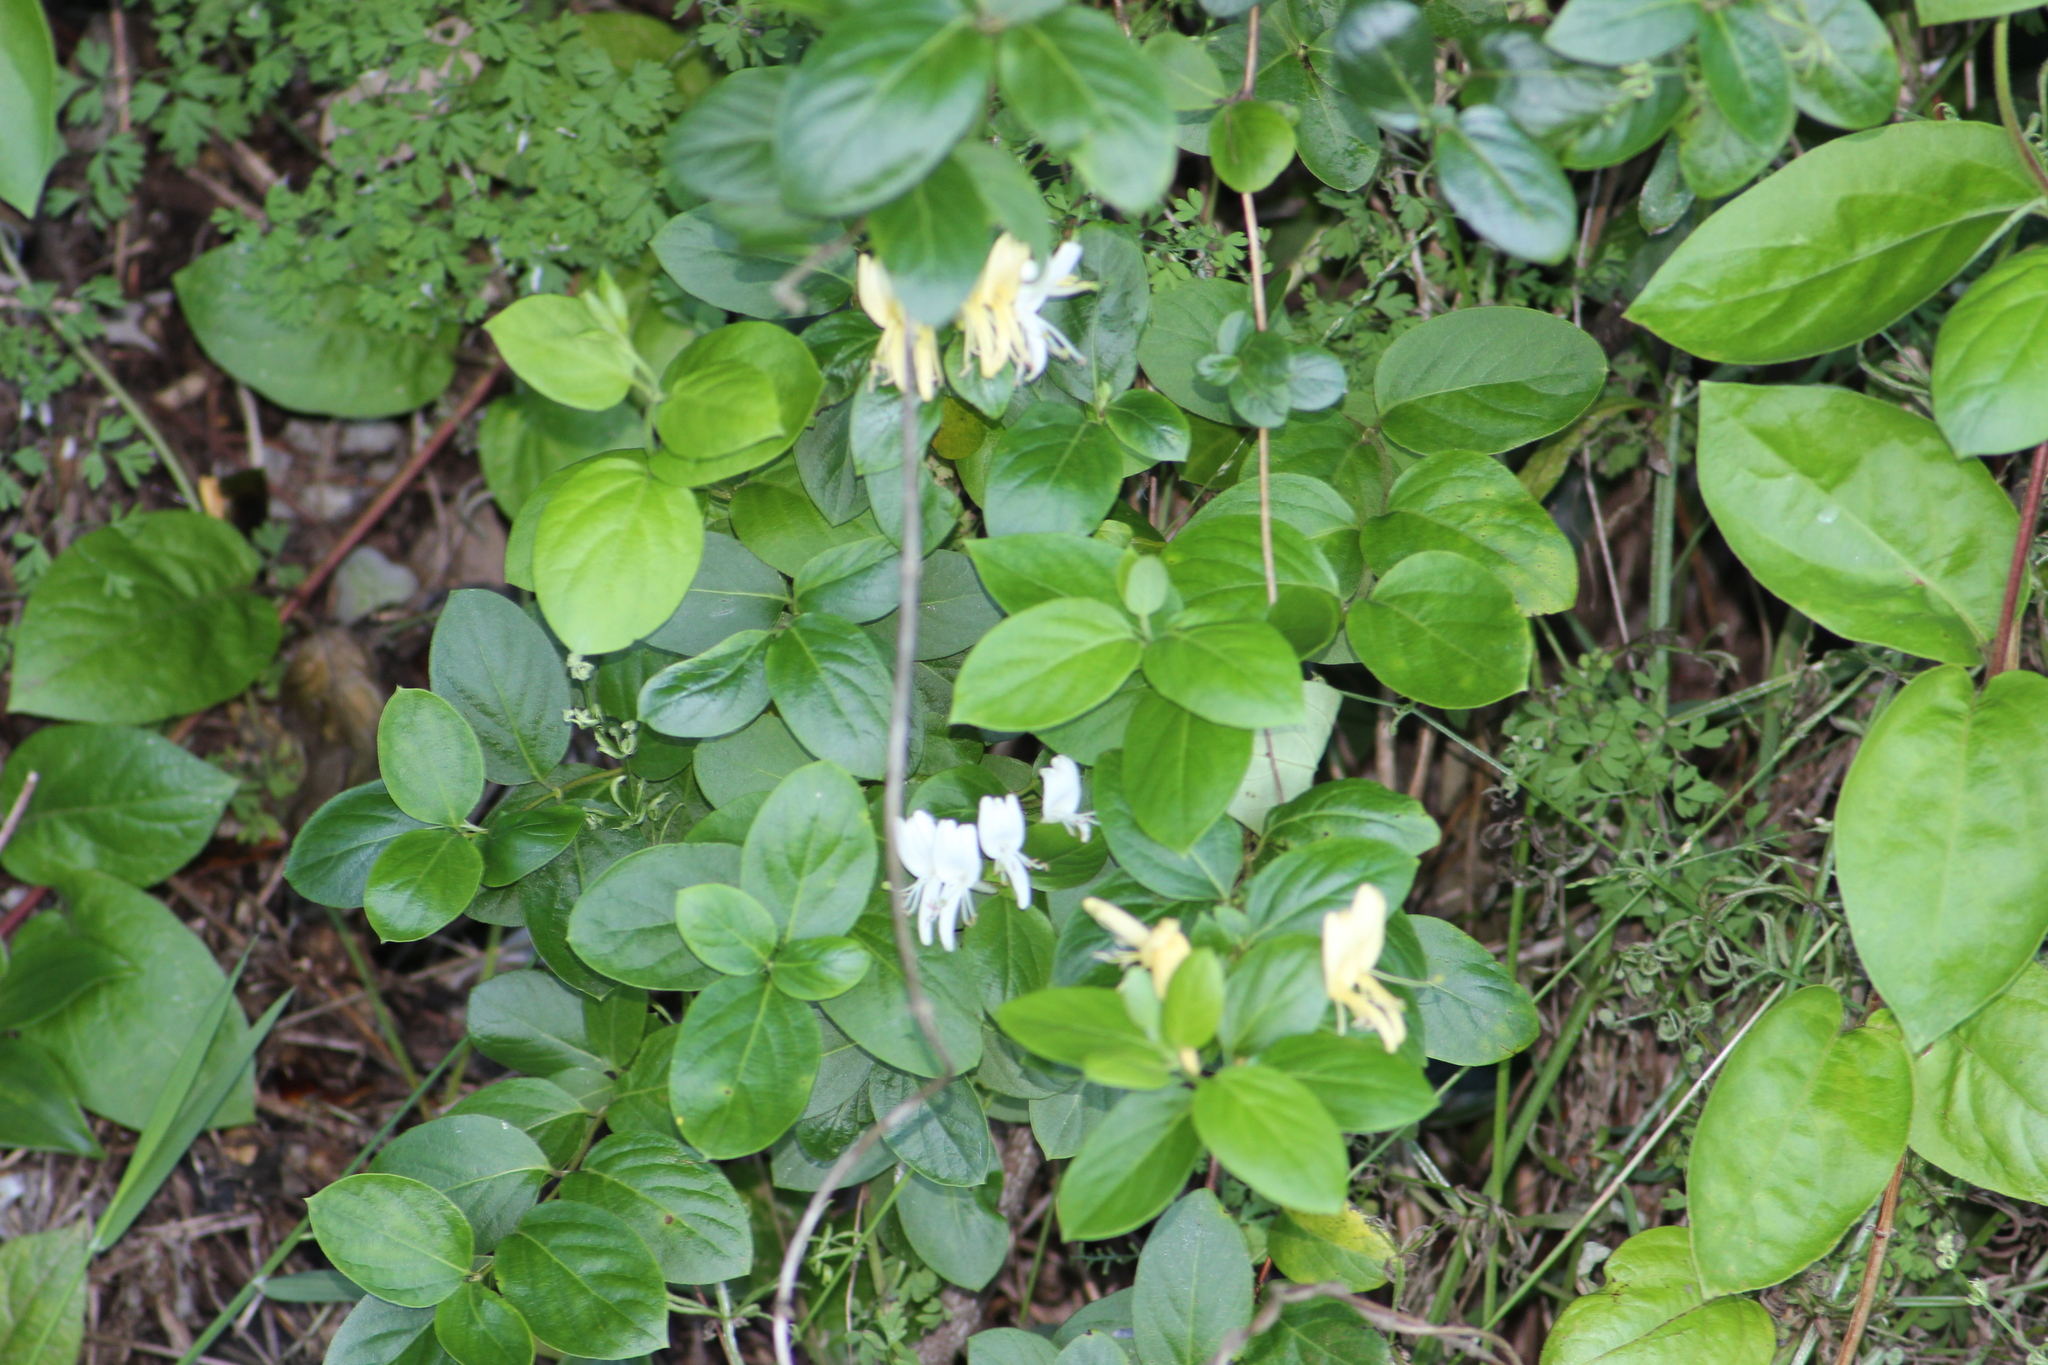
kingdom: Plantae
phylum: Tracheophyta
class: Magnoliopsida
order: Dipsacales
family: Caprifoliaceae
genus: Lonicera
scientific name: Lonicera japonica
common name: Japanese honeysuckle
